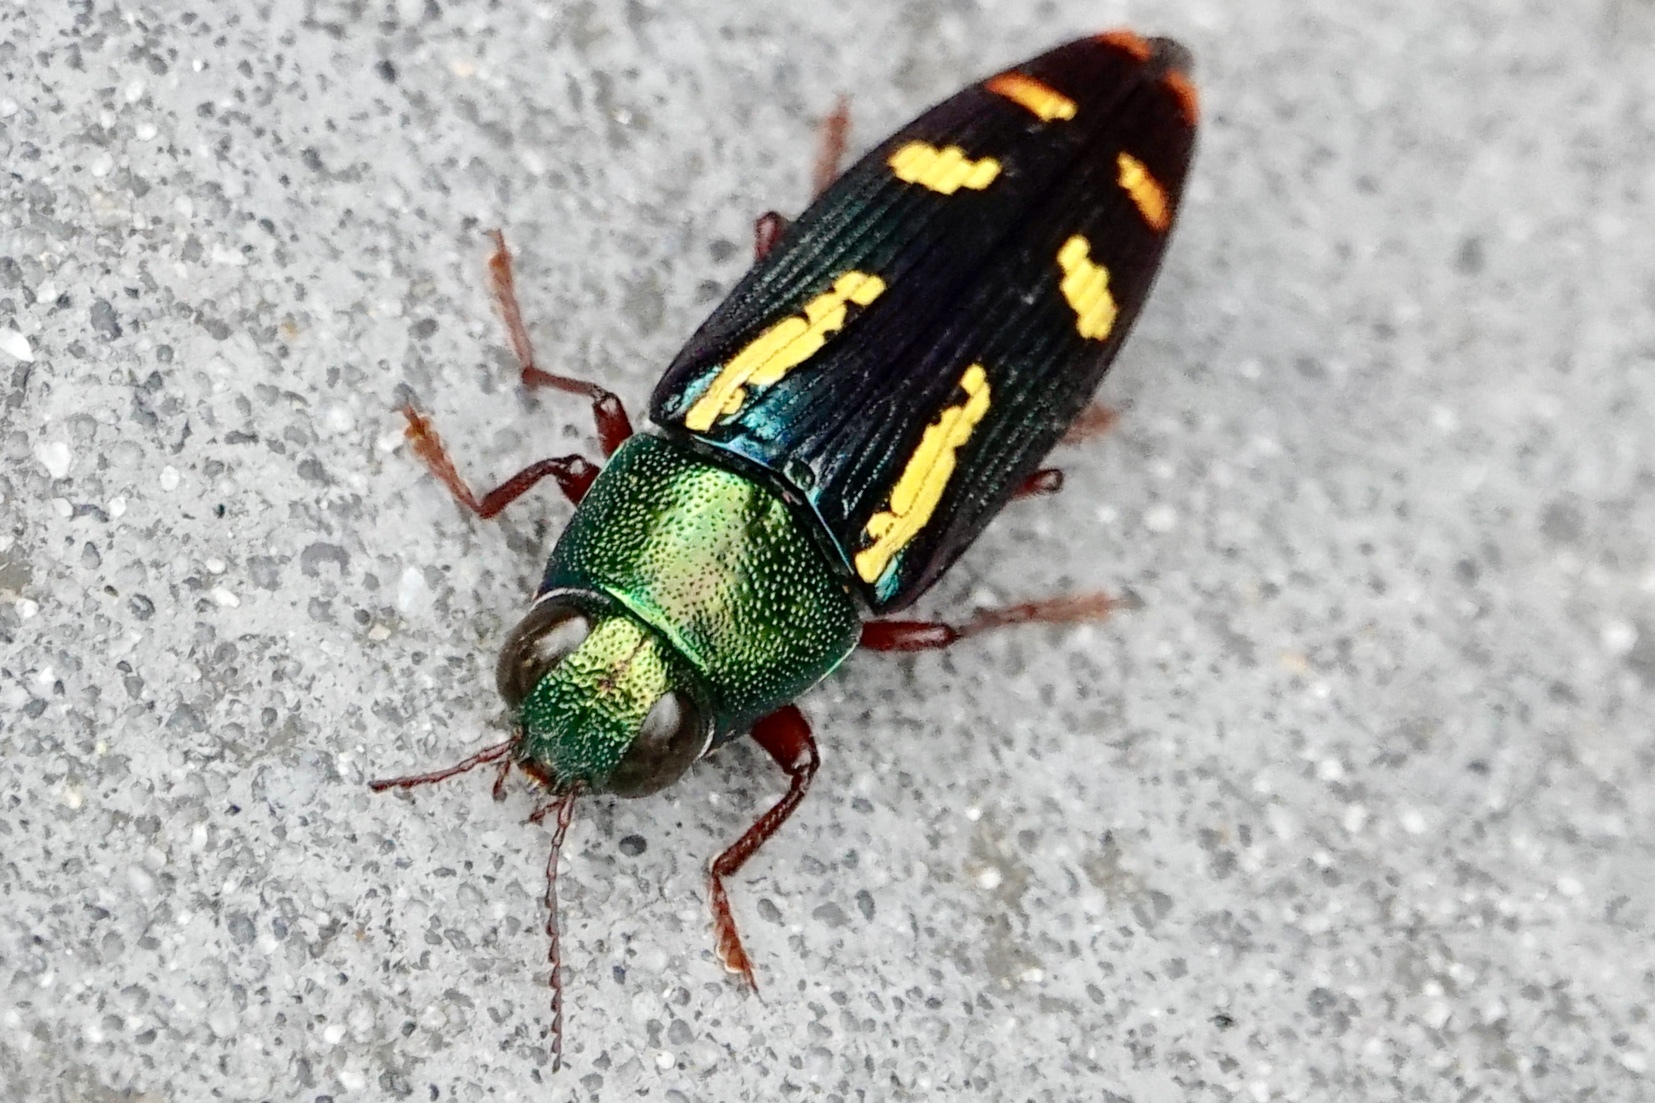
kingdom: Animalia
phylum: Arthropoda
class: Insecta
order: Coleoptera
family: Buprestidae
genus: Buprestis
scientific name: Buprestis rufipes
